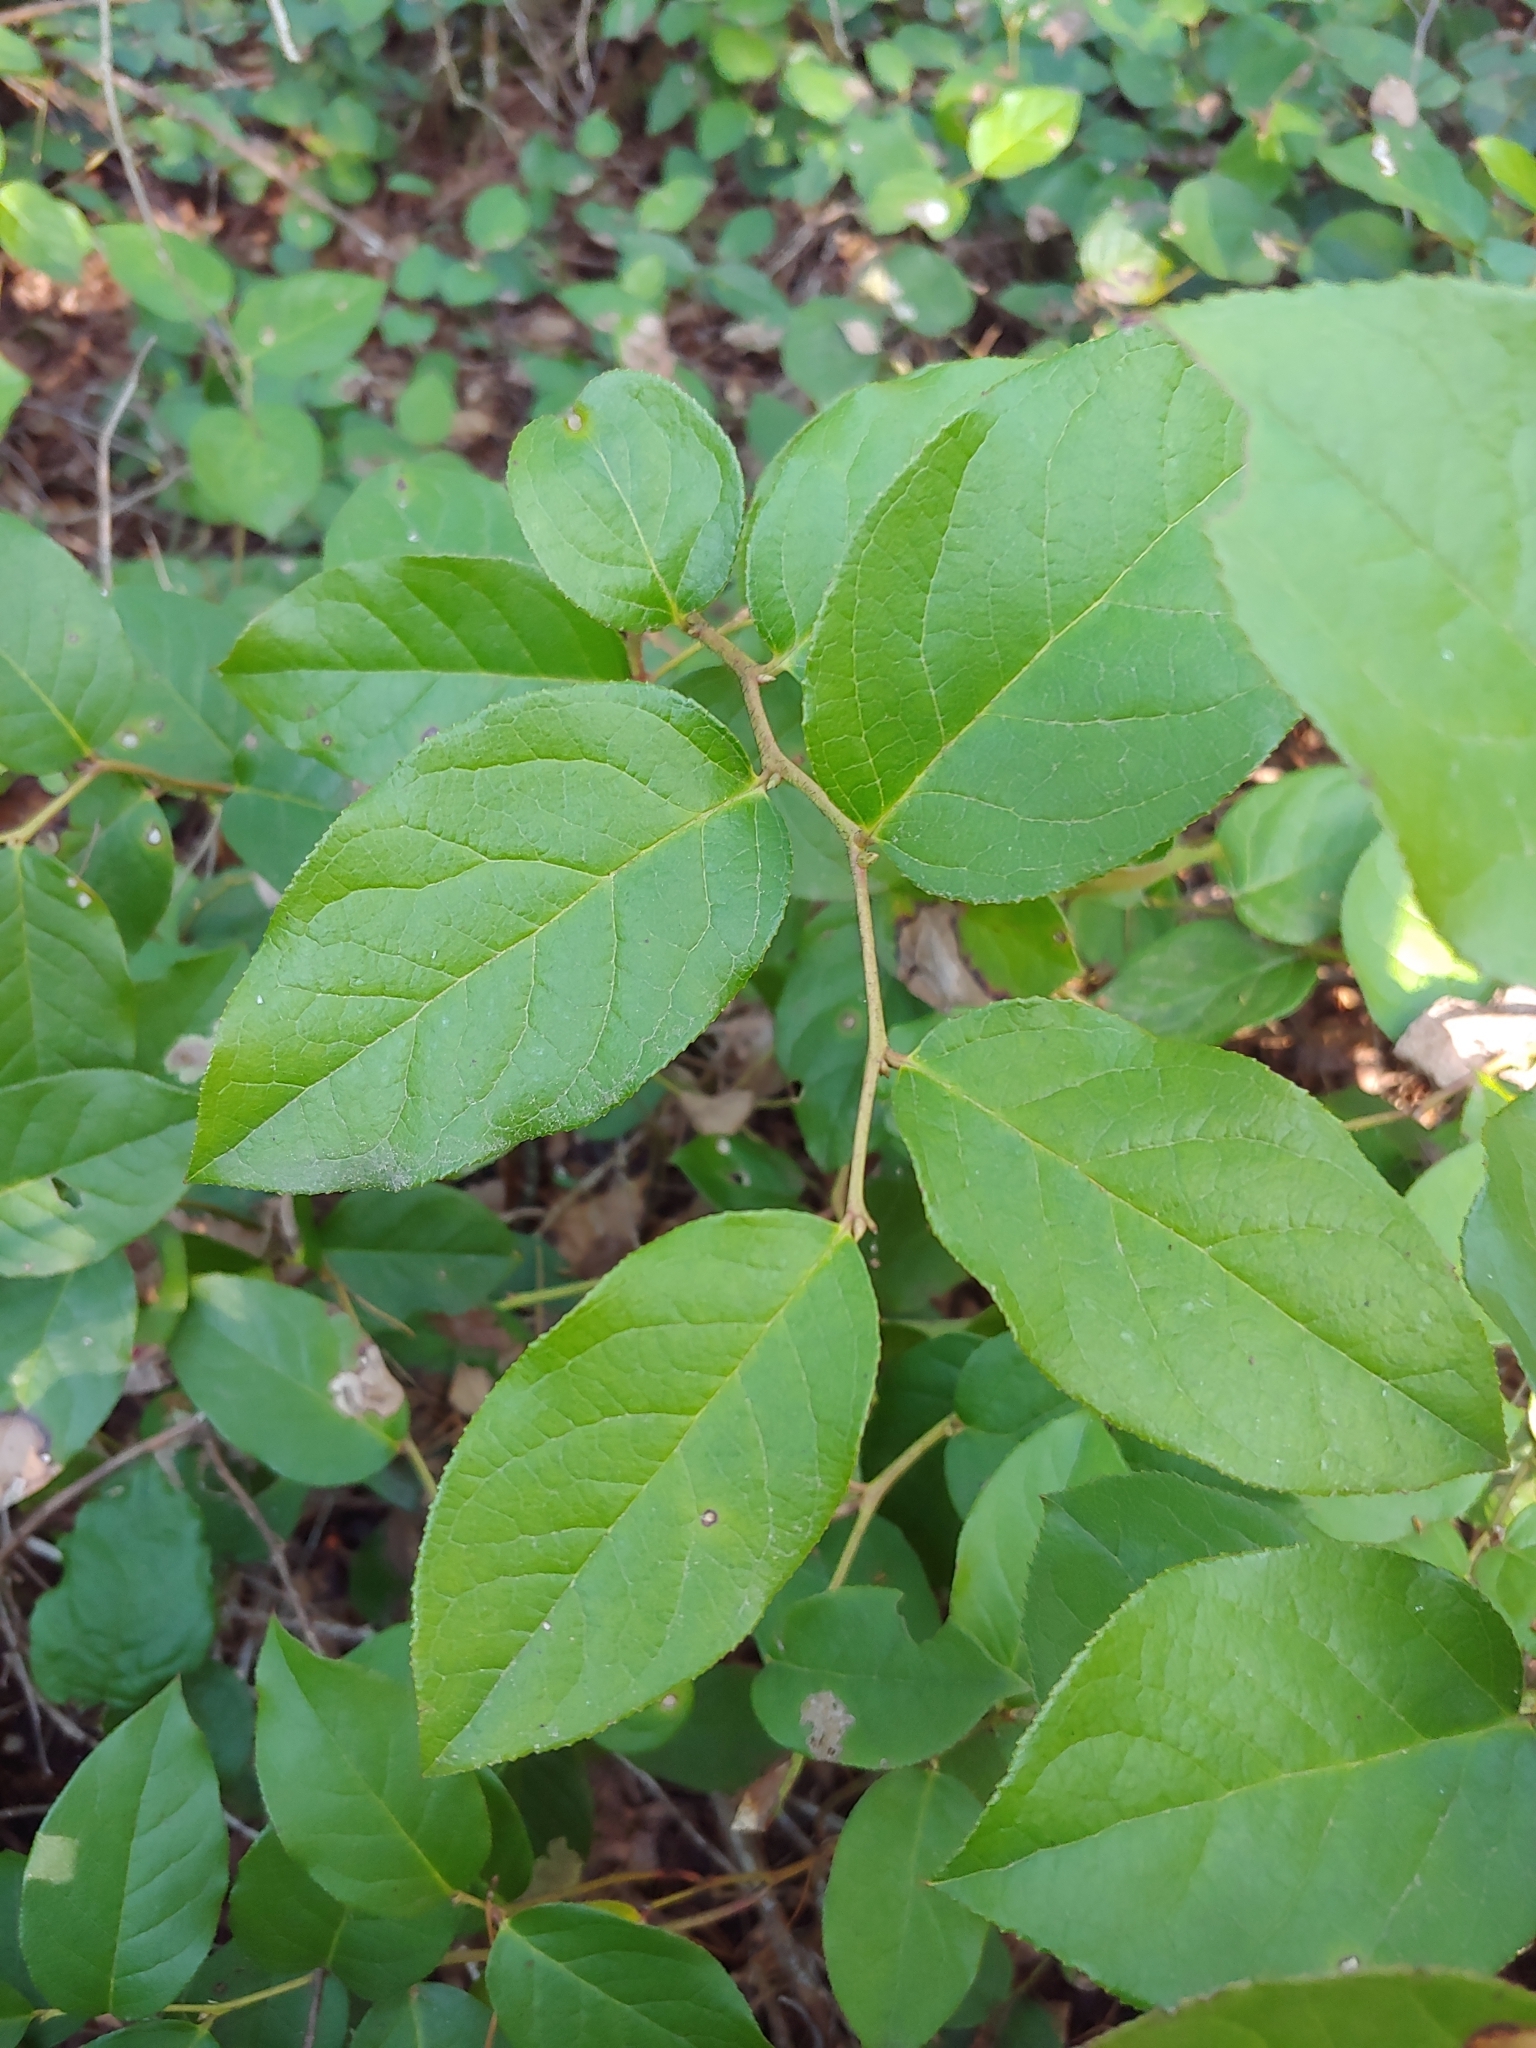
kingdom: Plantae
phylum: Tracheophyta
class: Magnoliopsida
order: Ericales
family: Ericaceae
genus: Gaultheria
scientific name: Gaultheria shallon
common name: Shallon
